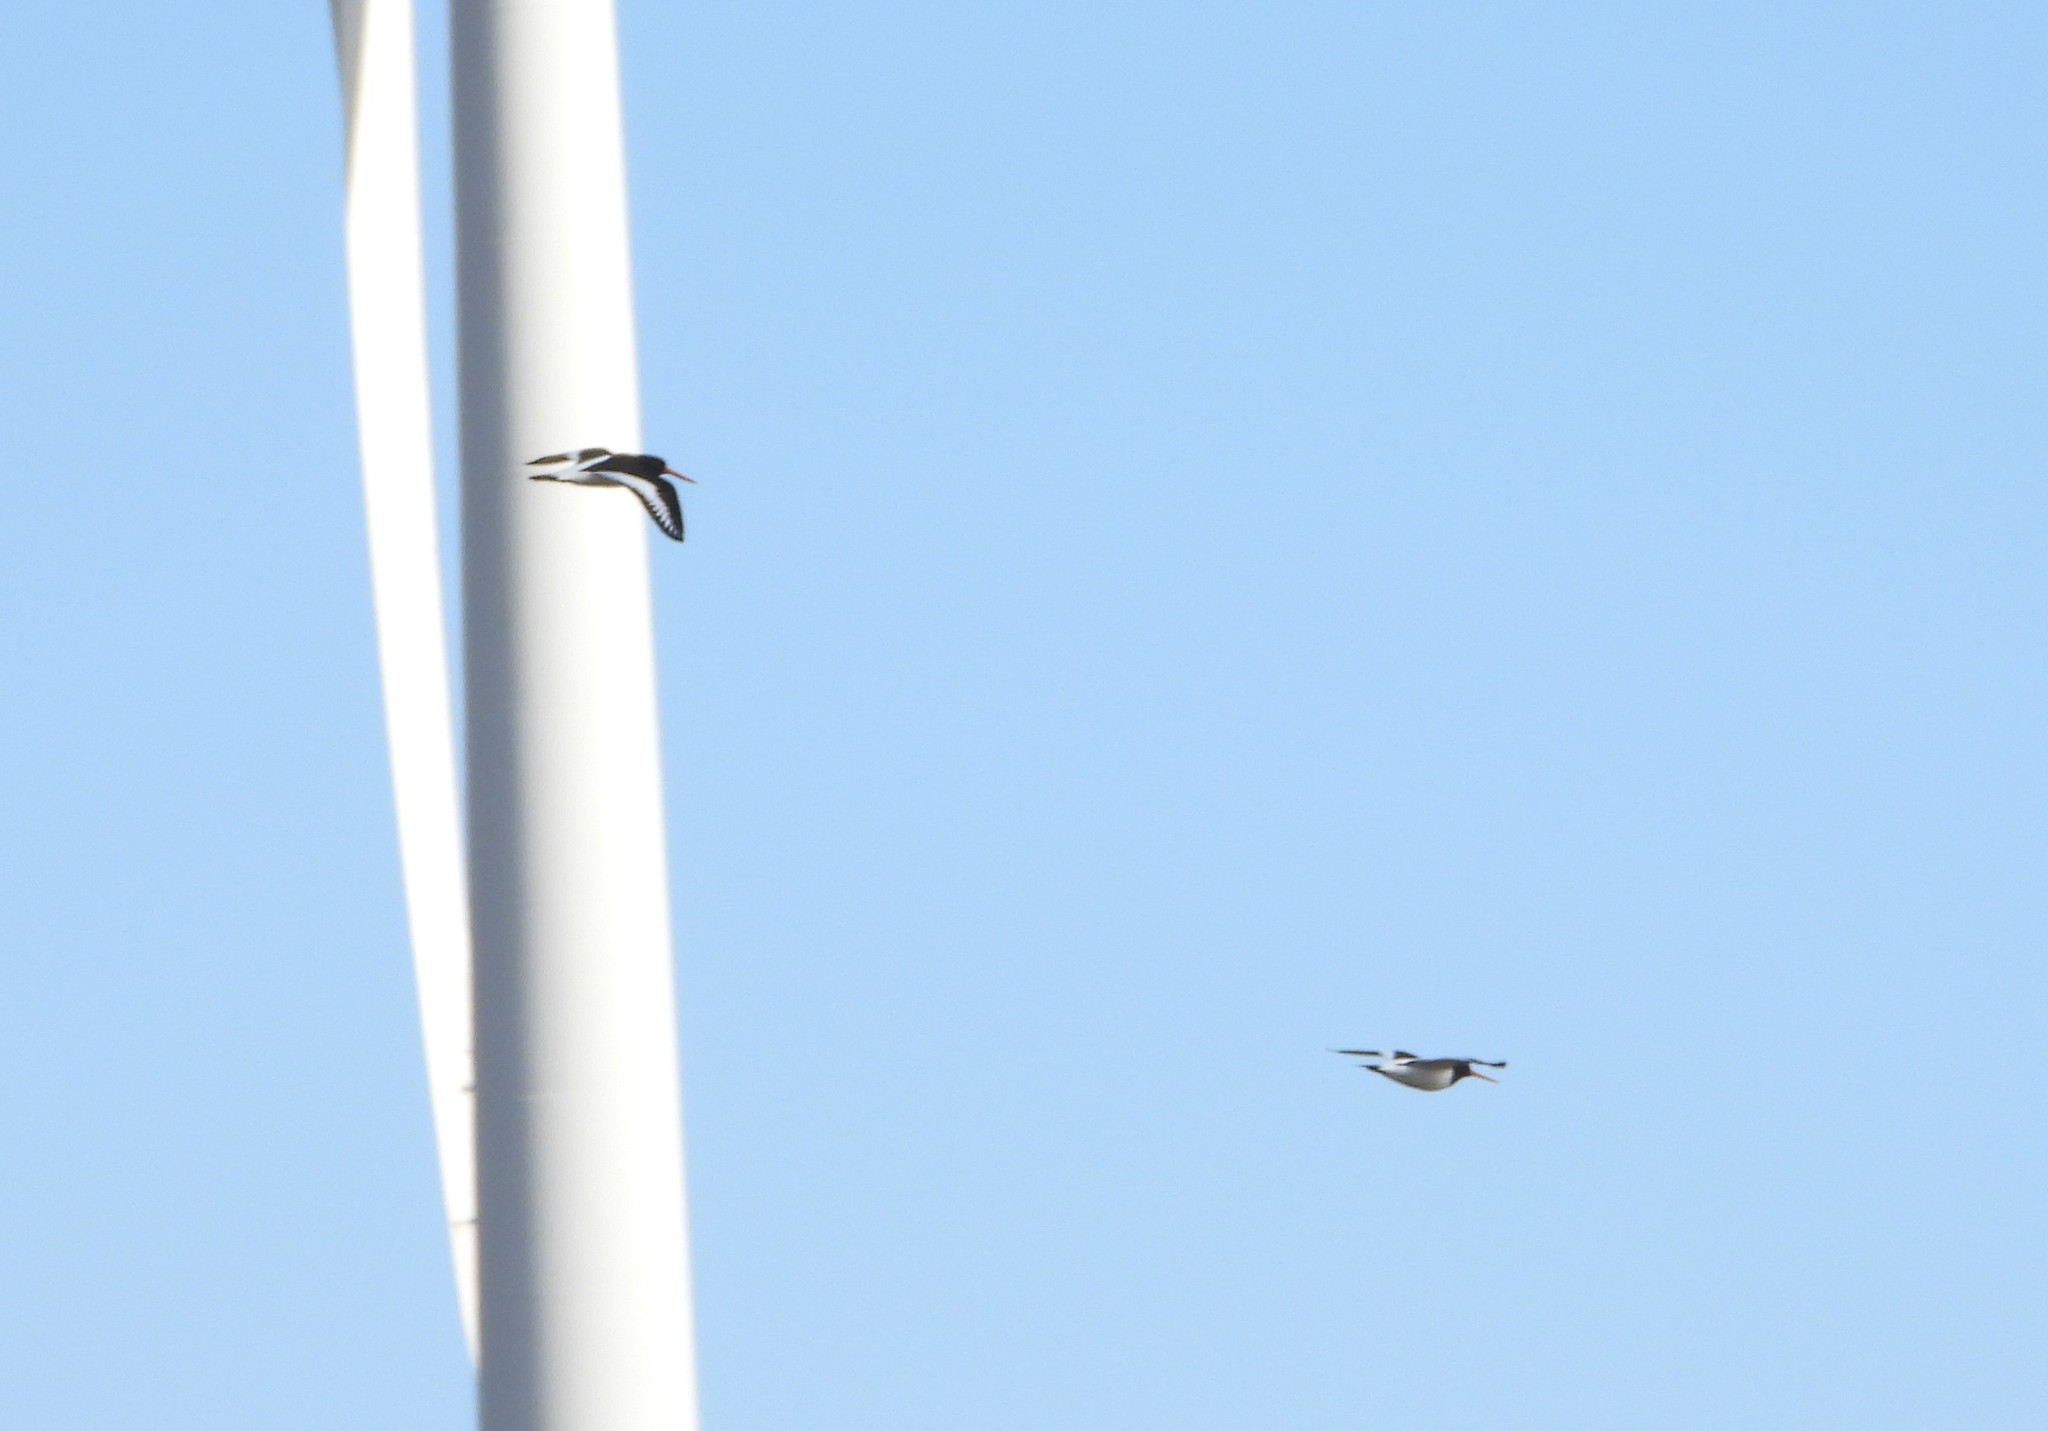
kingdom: Animalia
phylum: Chordata
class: Aves
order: Charadriiformes
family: Haematopodidae
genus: Haematopus
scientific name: Haematopus ostralegus
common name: Eurasian oystercatcher
